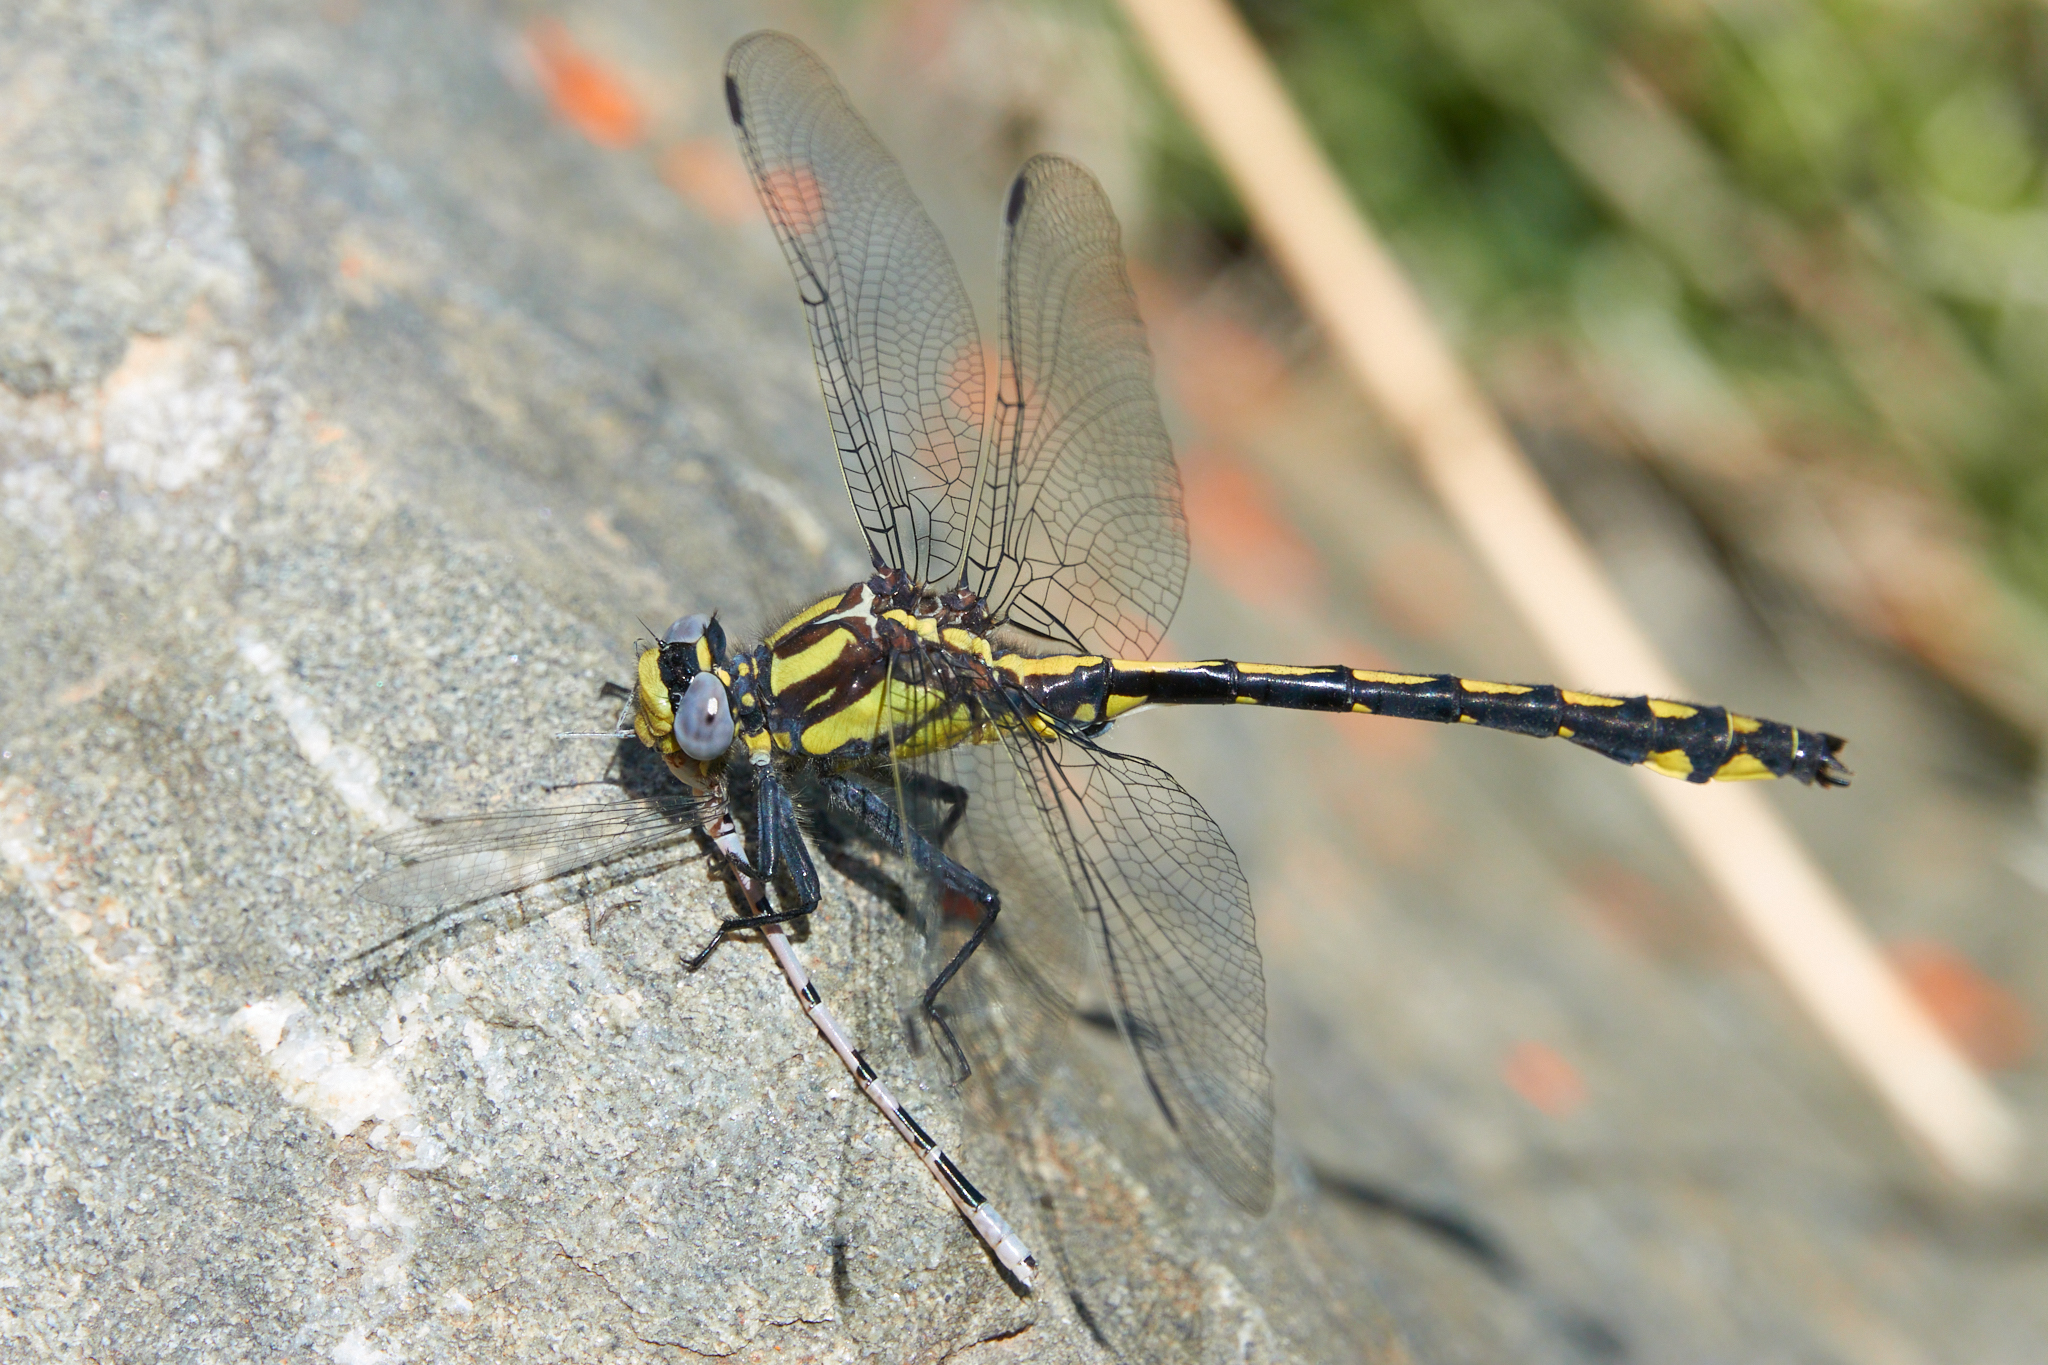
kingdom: Animalia
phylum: Arthropoda
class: Insecta
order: Odonata
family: Gomphidae
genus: Phanogomphus
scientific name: Phanogomphus kurilis
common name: Pacific clubtail
